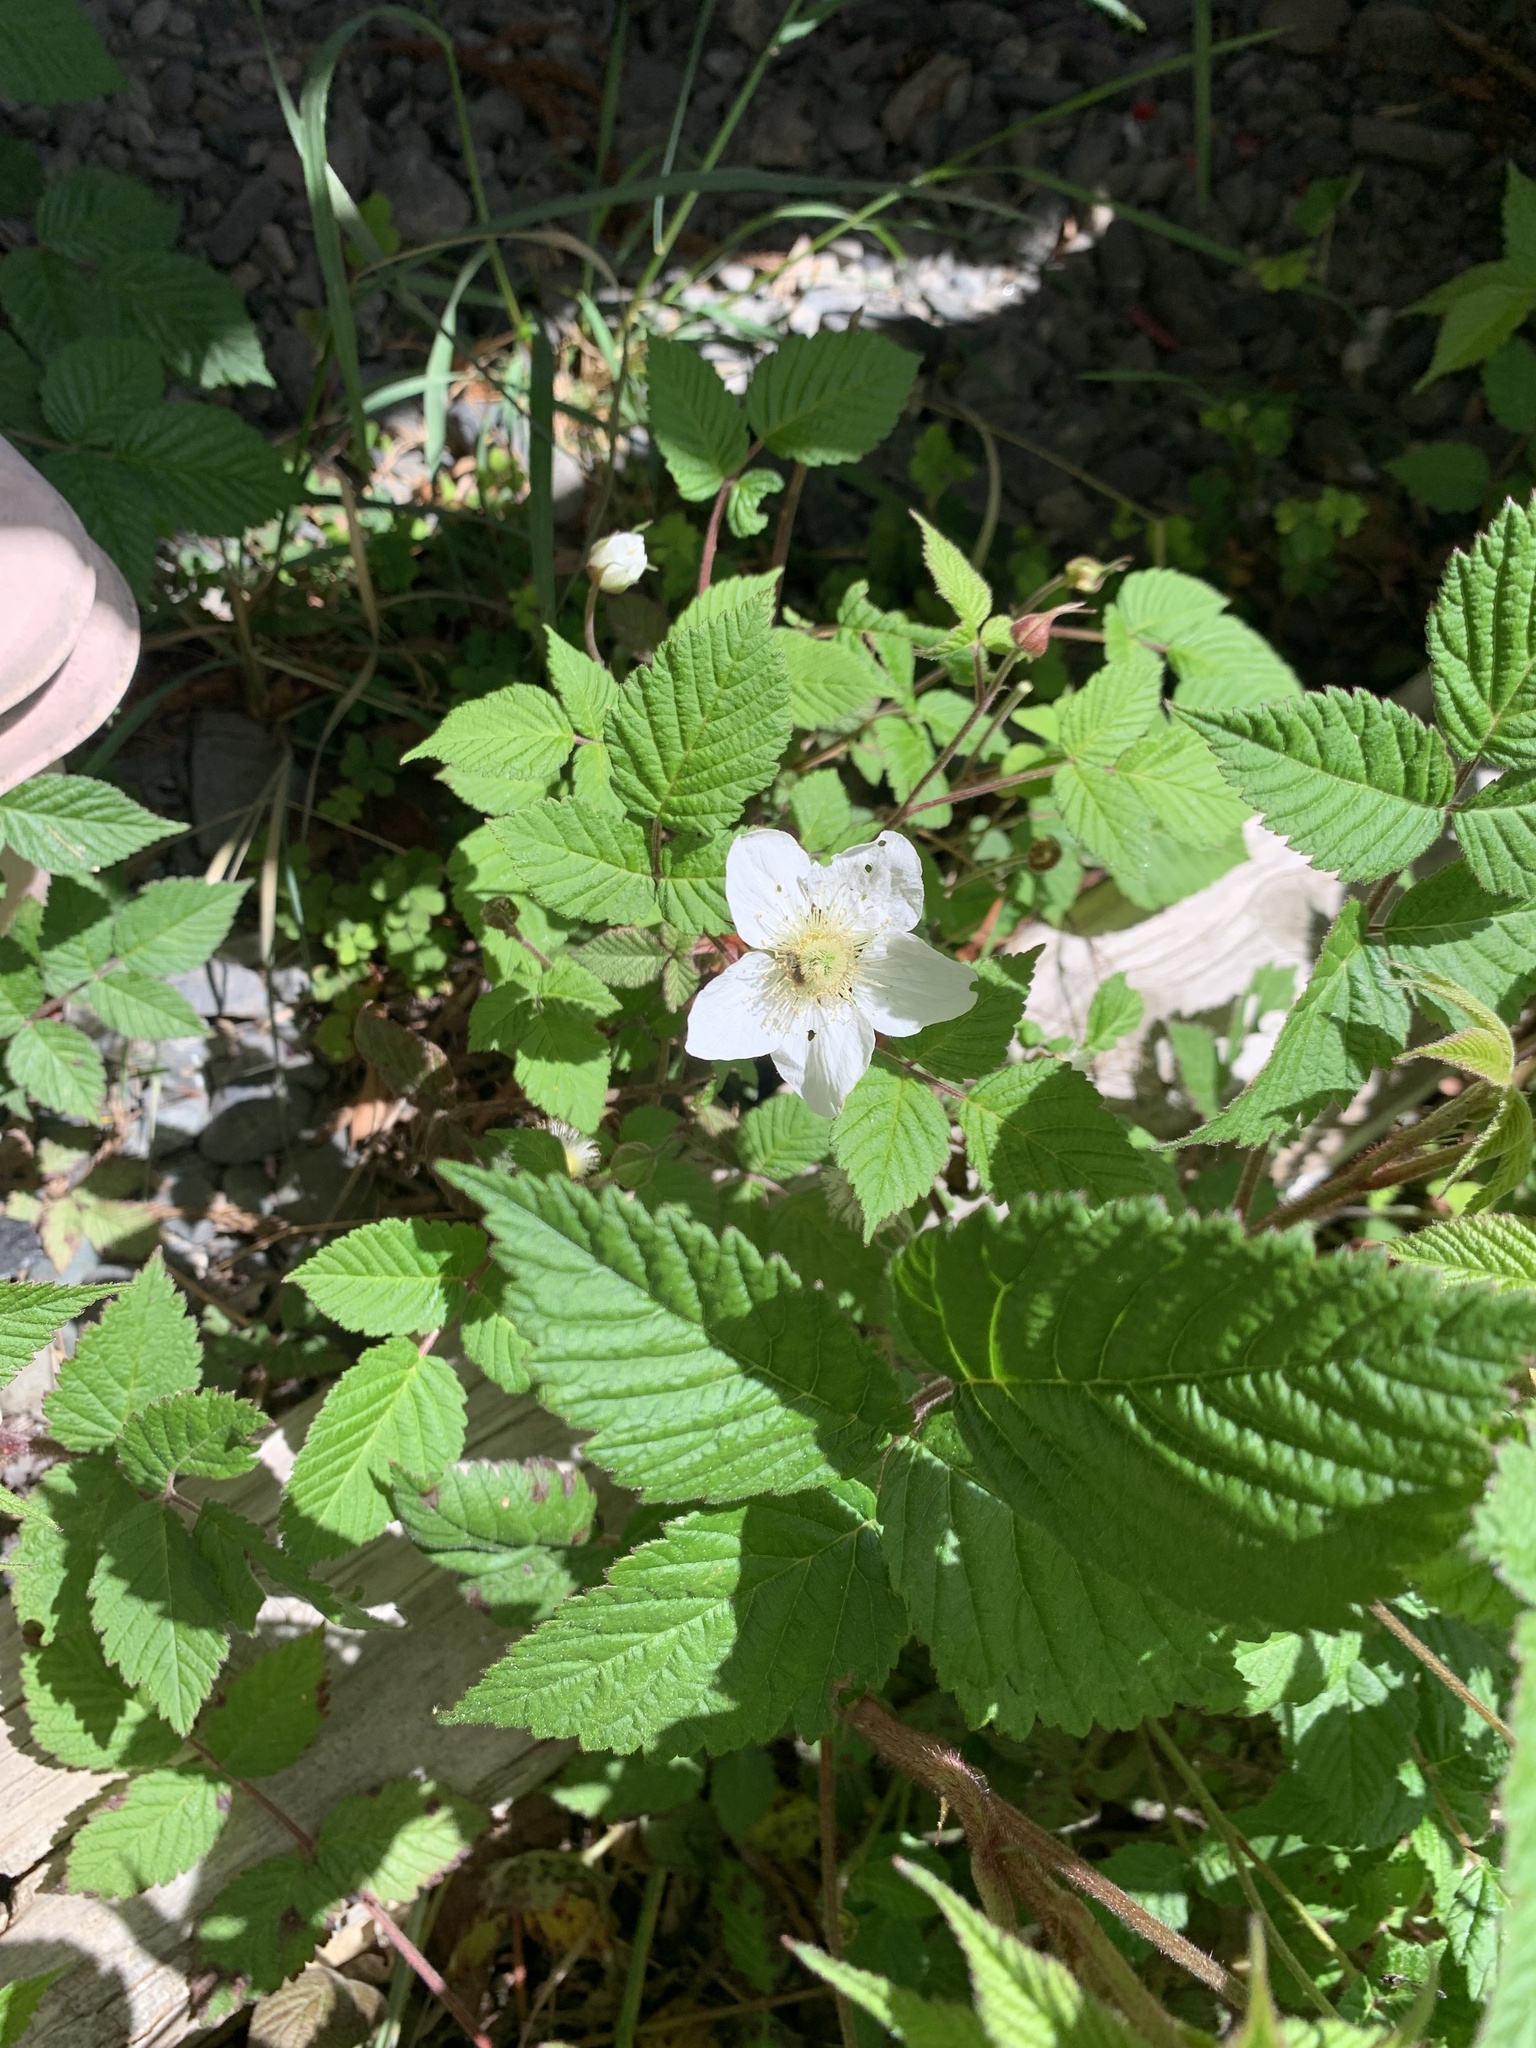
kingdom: Plantae
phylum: Tracheophyta
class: Magnoliopsida
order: Rosales
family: Rosaceae
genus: Rubus
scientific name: Rubus hirsutus
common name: Hirsute raspberry
